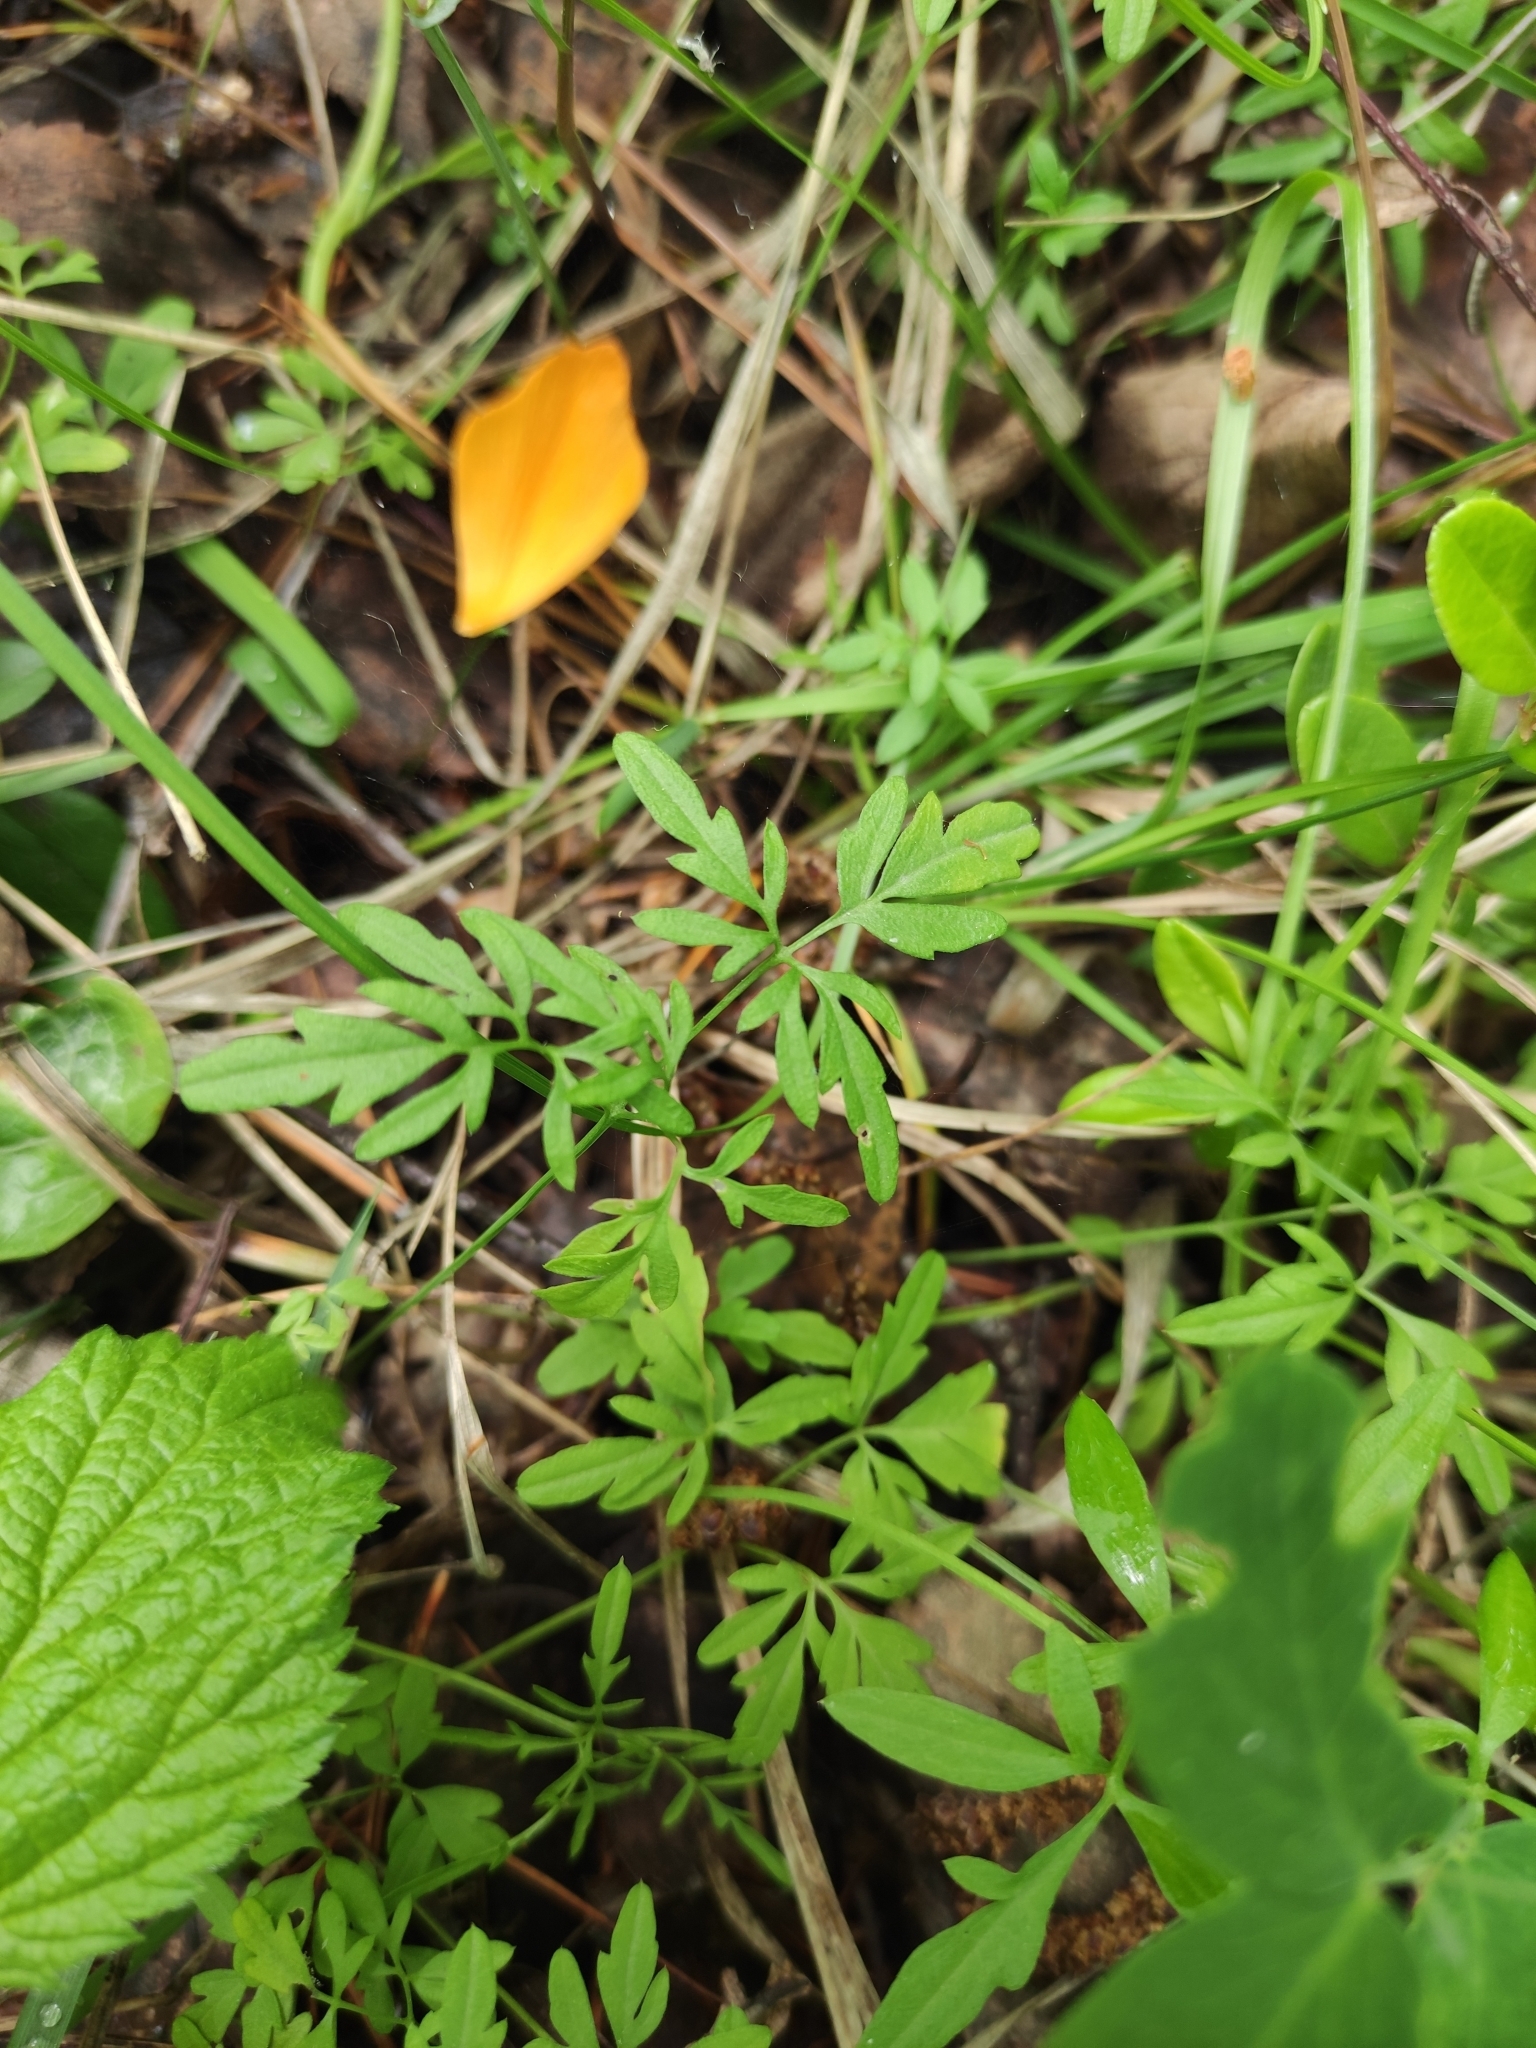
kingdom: Plantae
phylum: Tracheophyta
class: Magnoliopsida
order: Brassicales
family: Brassicaceae
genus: Cardamine
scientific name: Cardamine trifida
